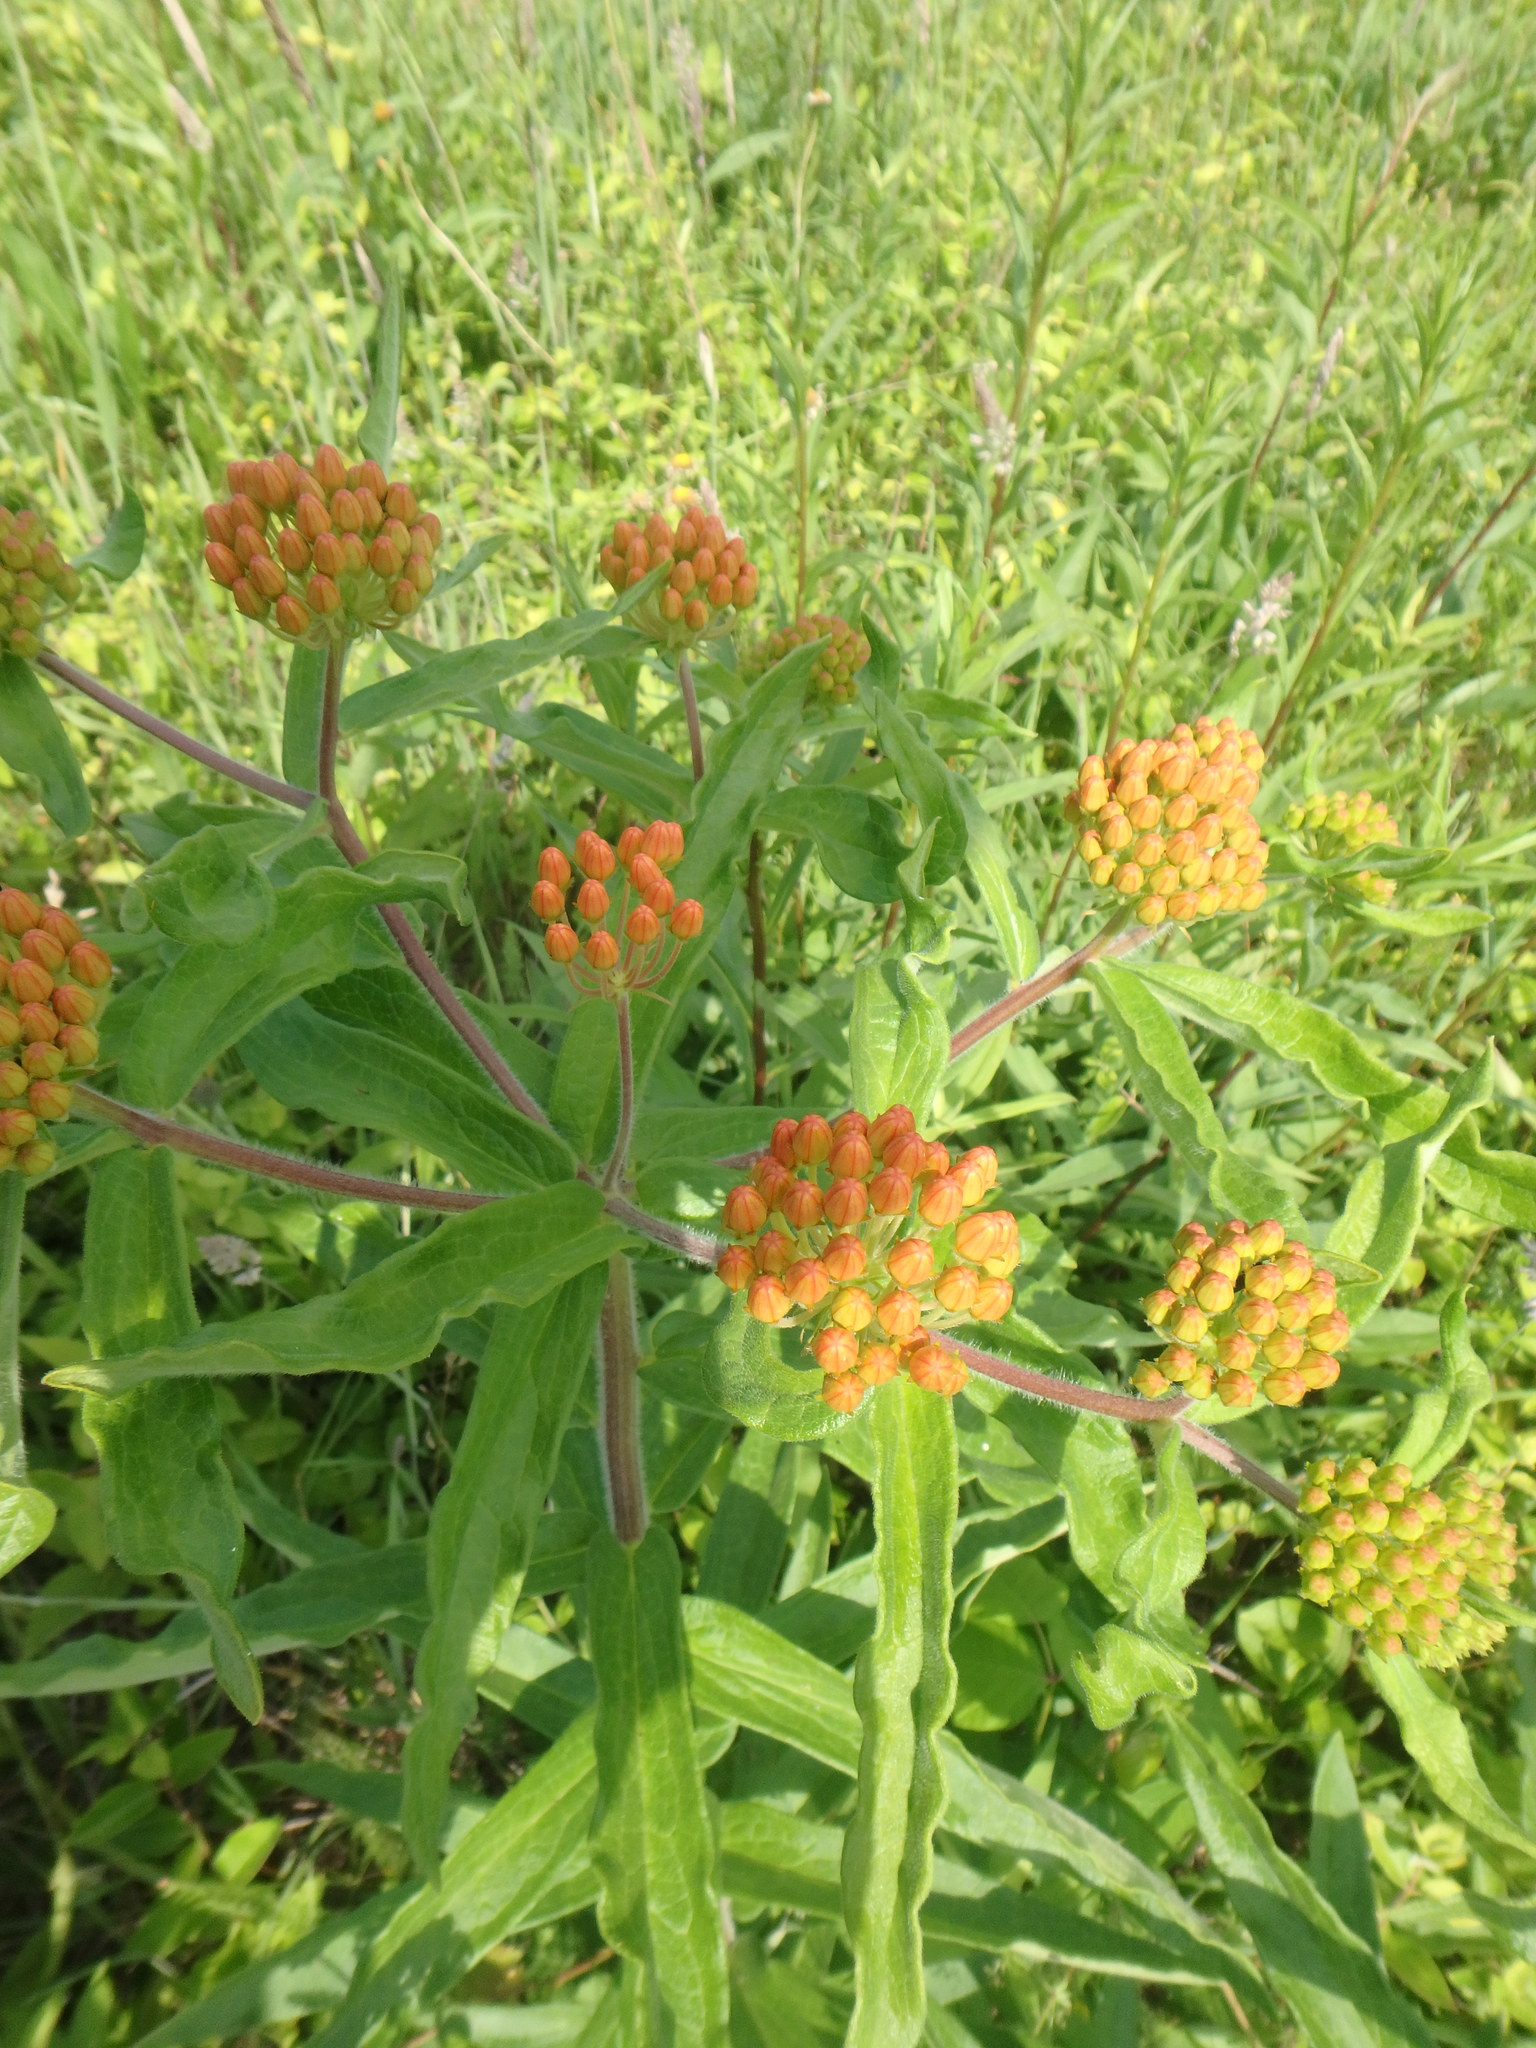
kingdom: Plantae
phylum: Tracheophyta
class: Magnoliopsida
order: Gentianales
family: Apocynaceae
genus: Asclepias
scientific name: Asclepias tuberosa
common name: Butterfly milkweed
